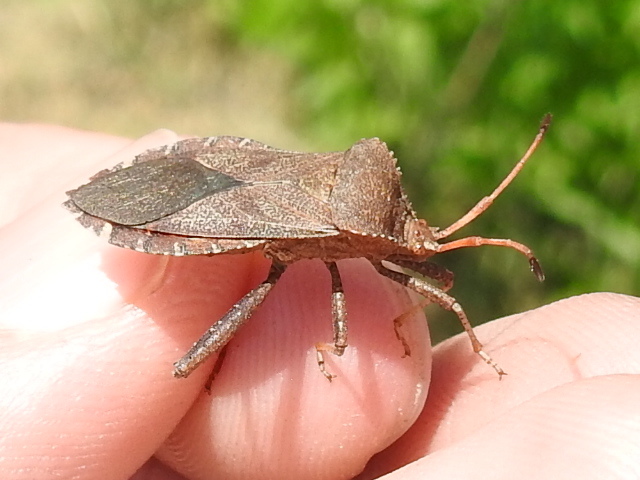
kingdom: Animalia
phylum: Arthropoda
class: Insecta
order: Hemiptera
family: Coreidae
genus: Euthochtha
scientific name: Euthochtha galeator
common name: Helmeted squash bug
